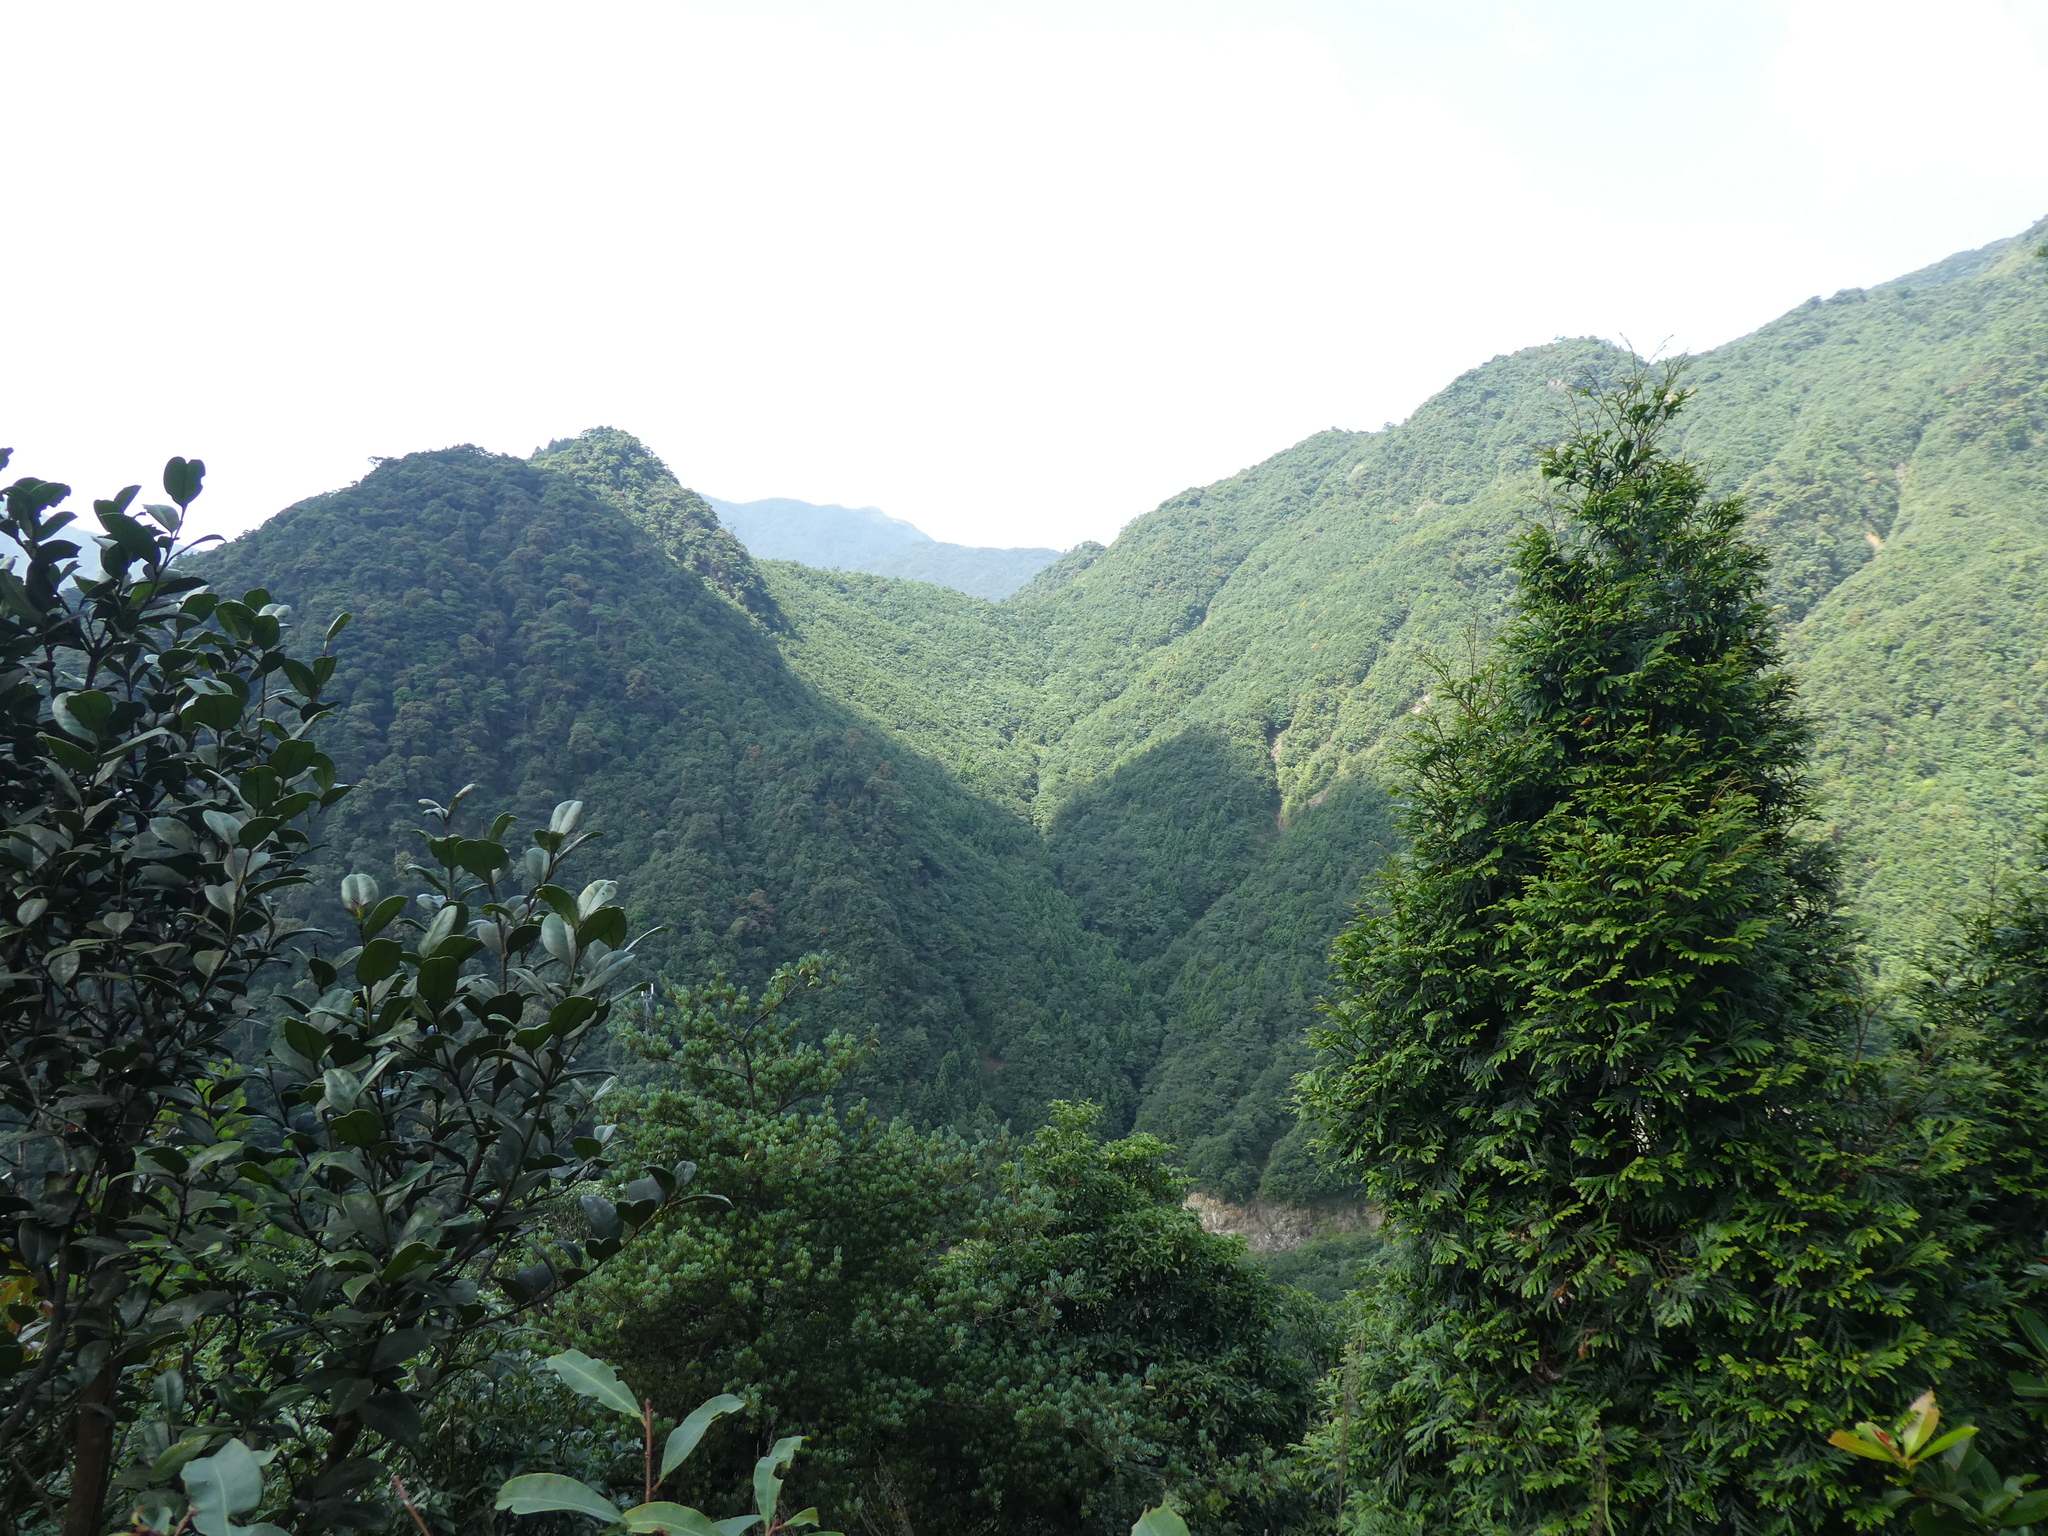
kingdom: Plantae
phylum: Tracheophyta
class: Pinopsida
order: Pinales
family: Cupressaceae
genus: Fokienia
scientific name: Fokienia hodginsii
